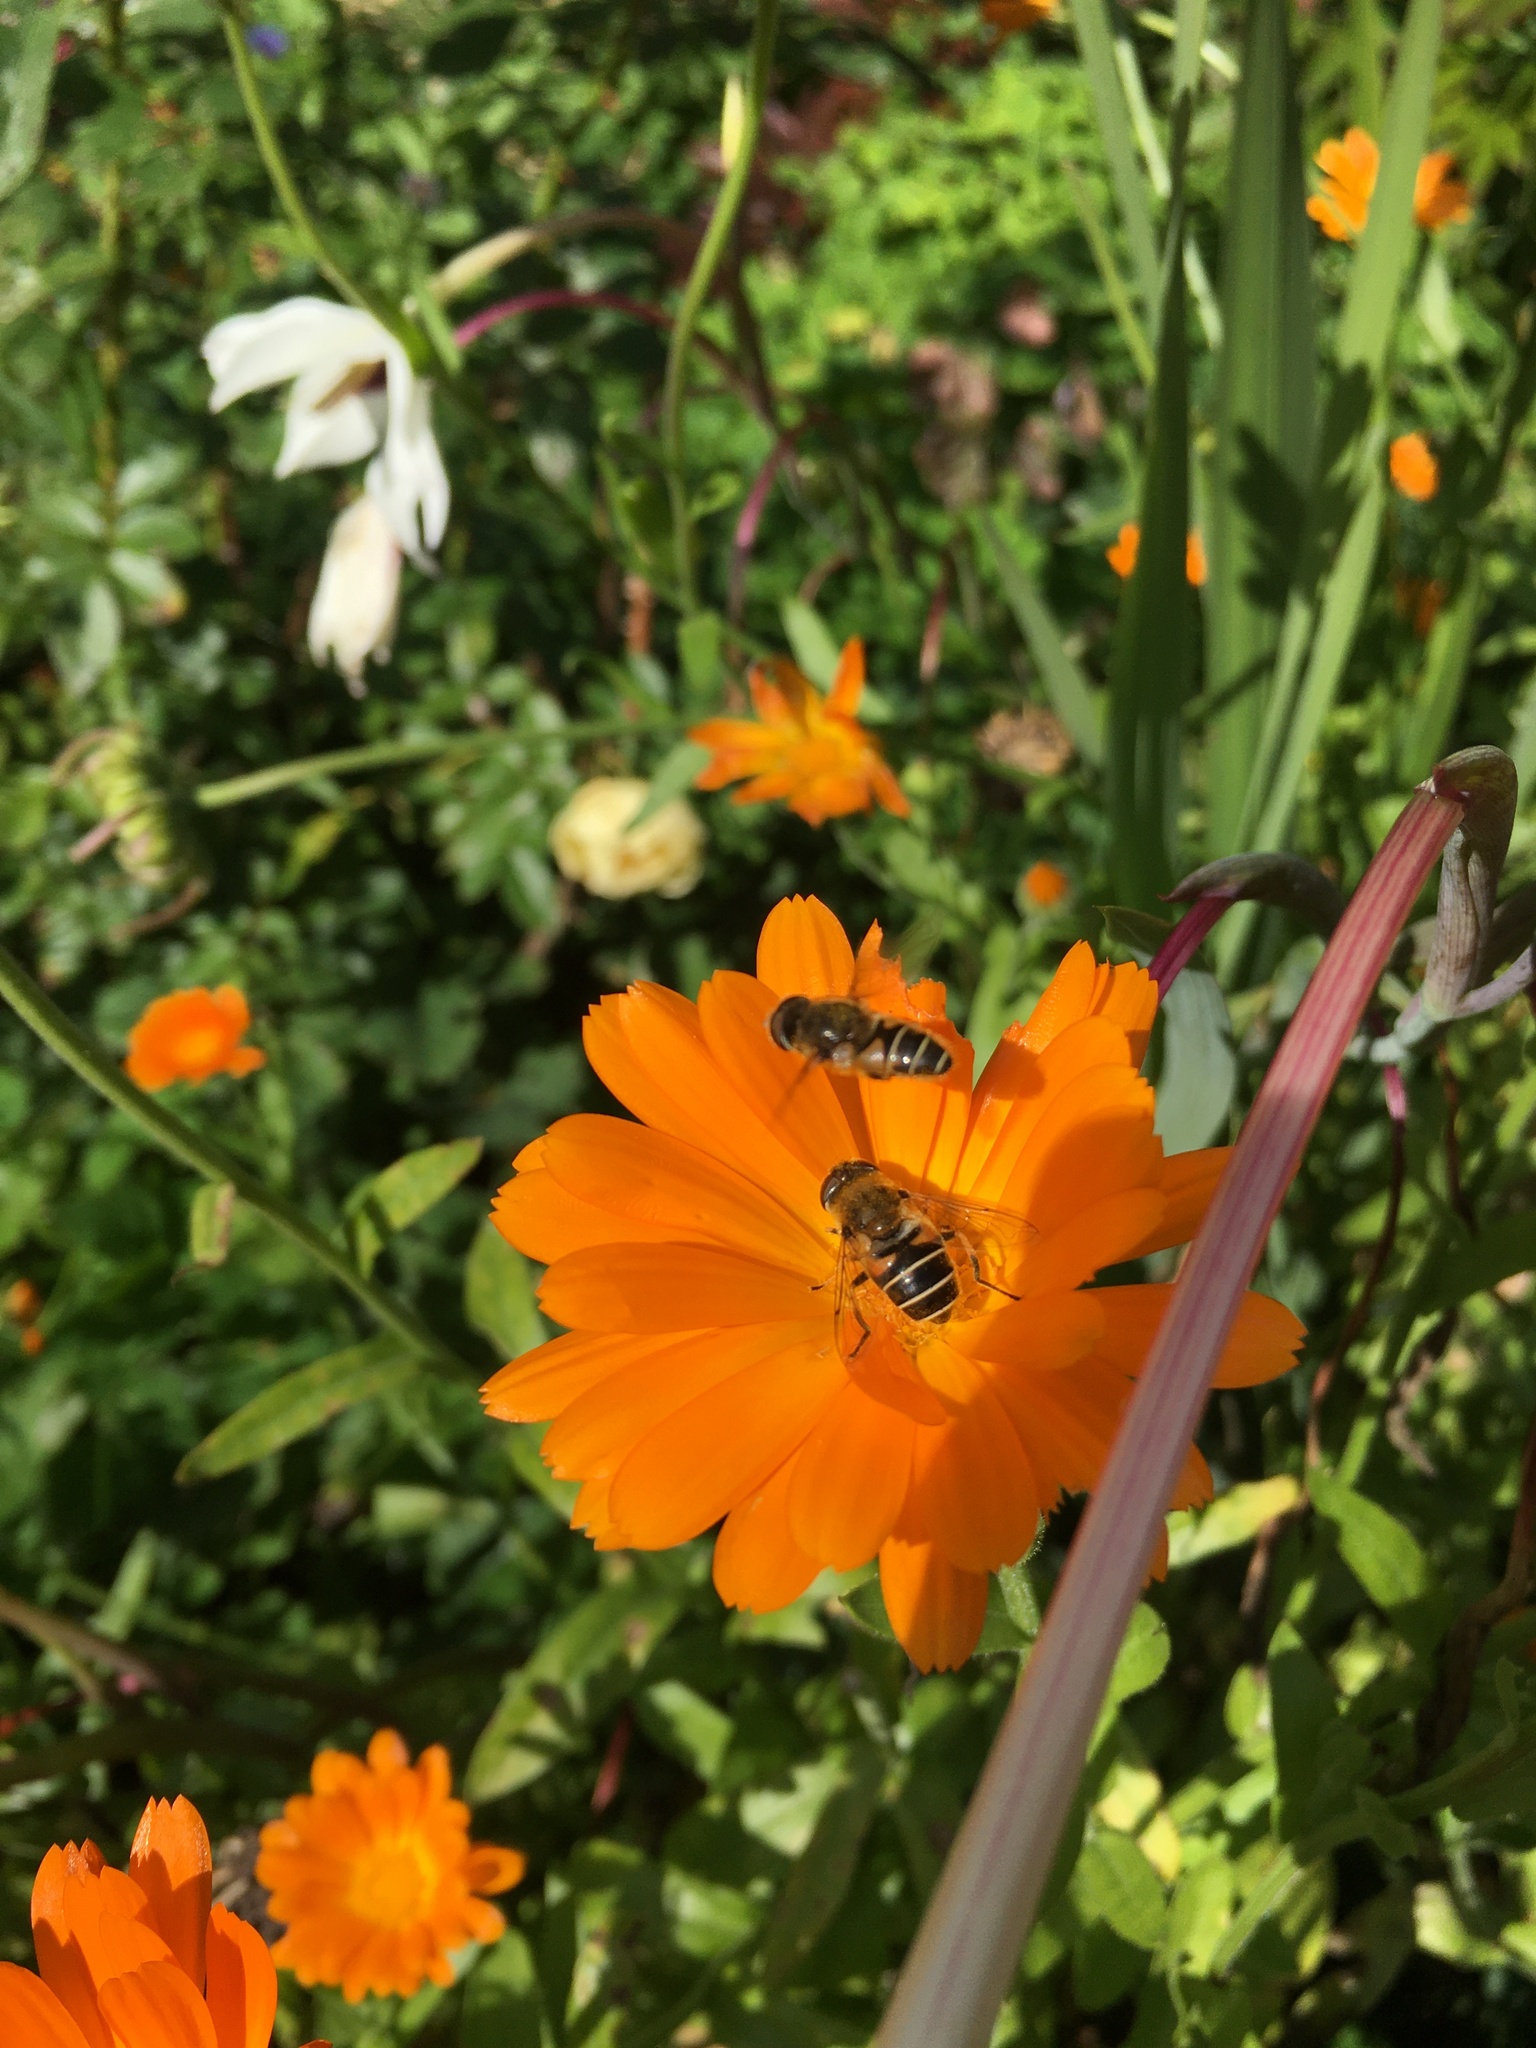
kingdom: Animalia
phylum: Arthropoda
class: Insecta
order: Diptera
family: Syrphidae
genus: Eristalis
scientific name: Eristalis nemorum
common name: Orange-spined drone fly
